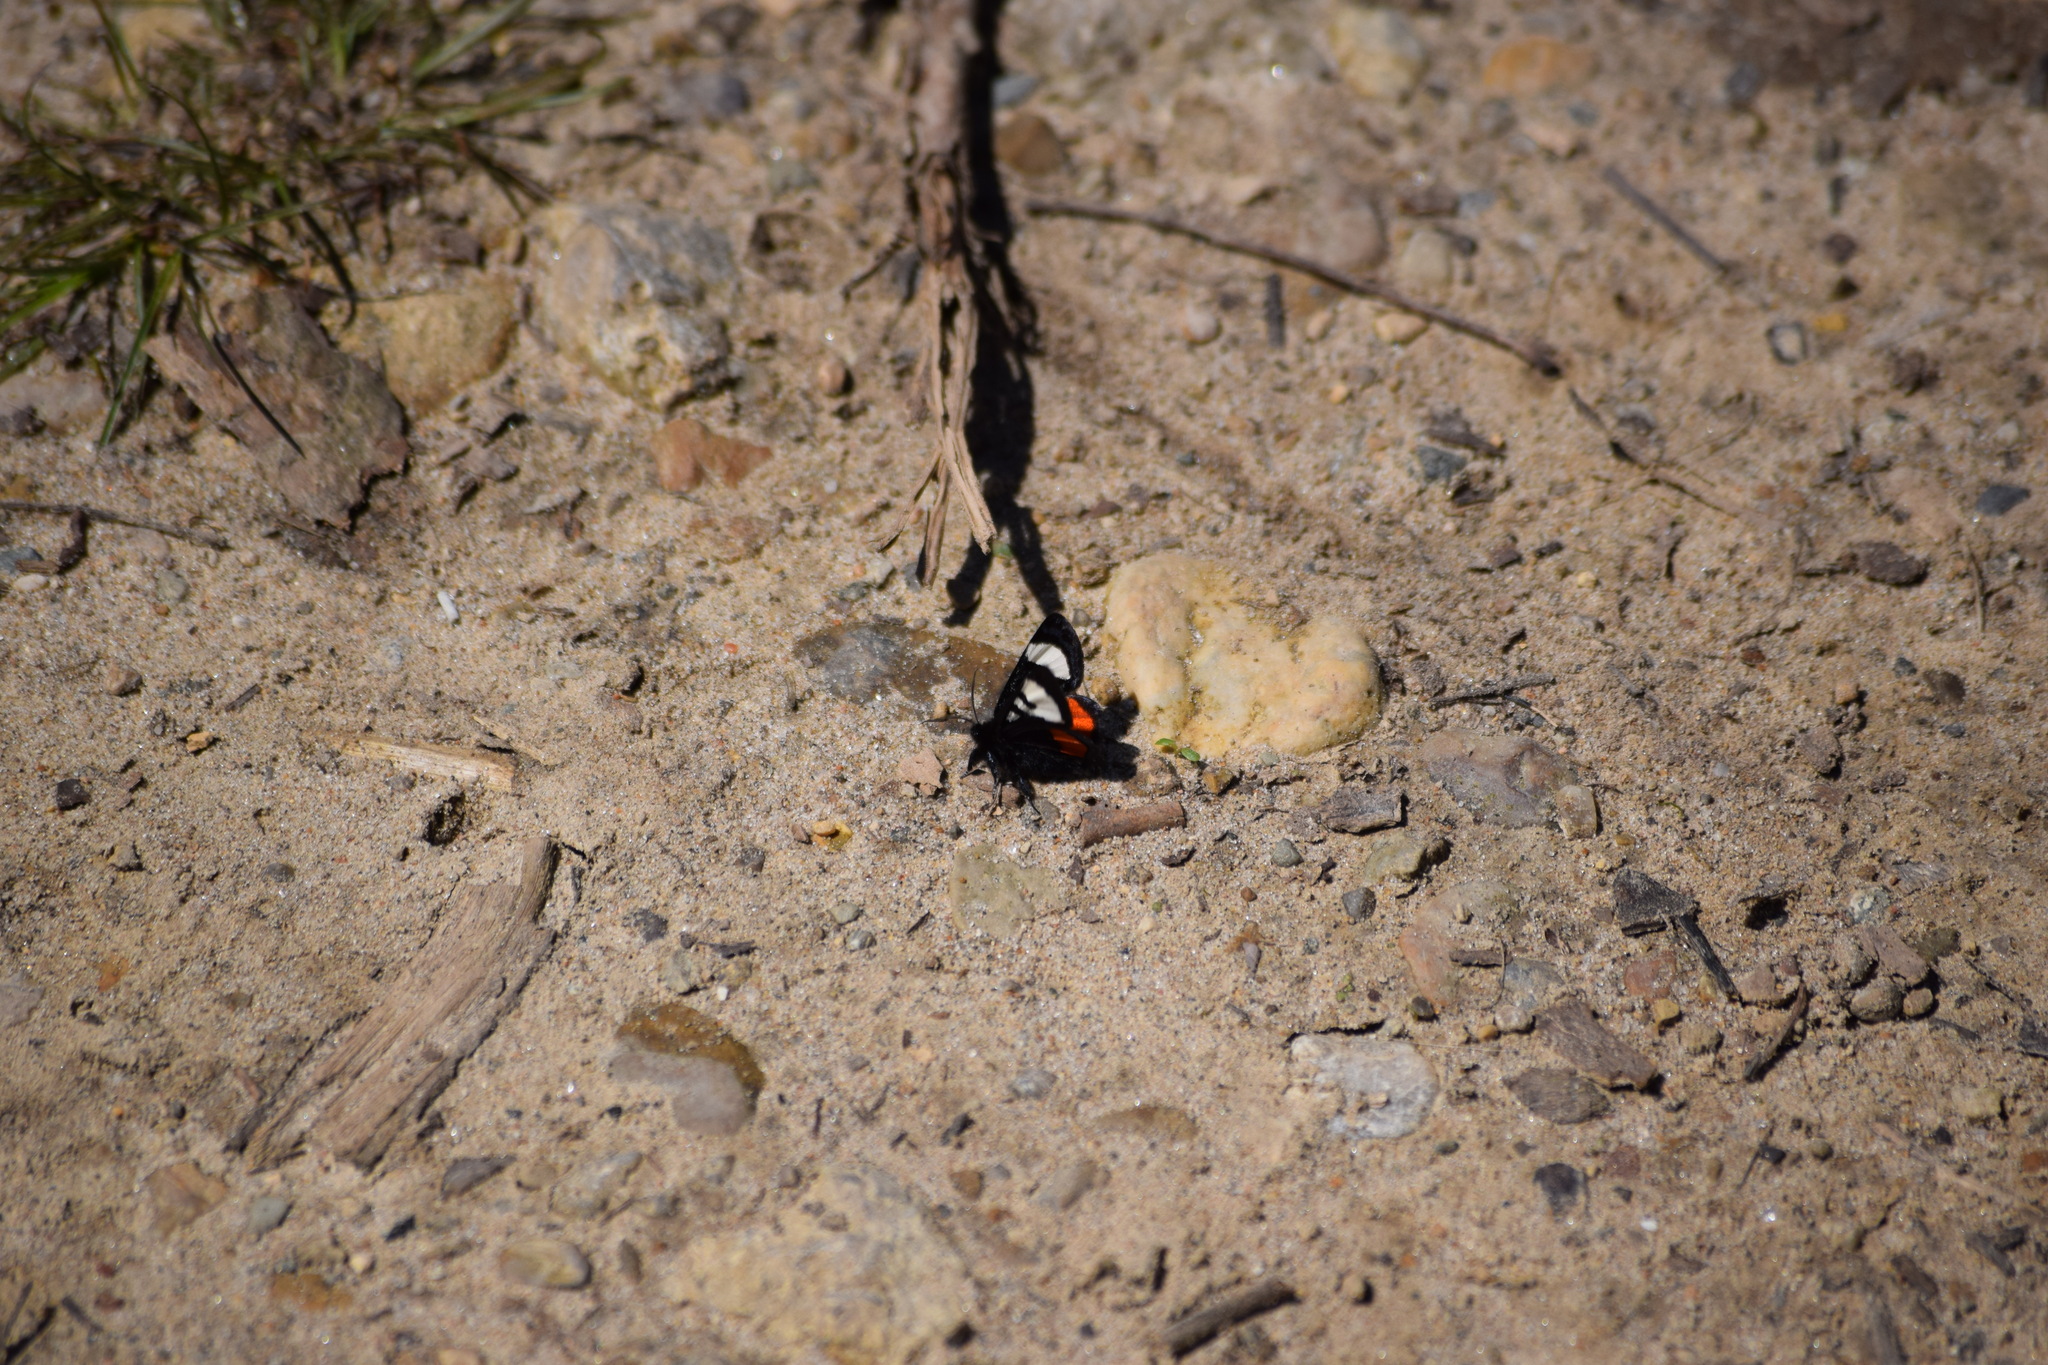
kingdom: Animalia
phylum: Arthropoda
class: Insecta
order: Lepidoptera
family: Noctuidae
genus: Psychomorpha
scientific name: Psychomorpha epimenis
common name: Grapevine epimenis moth
